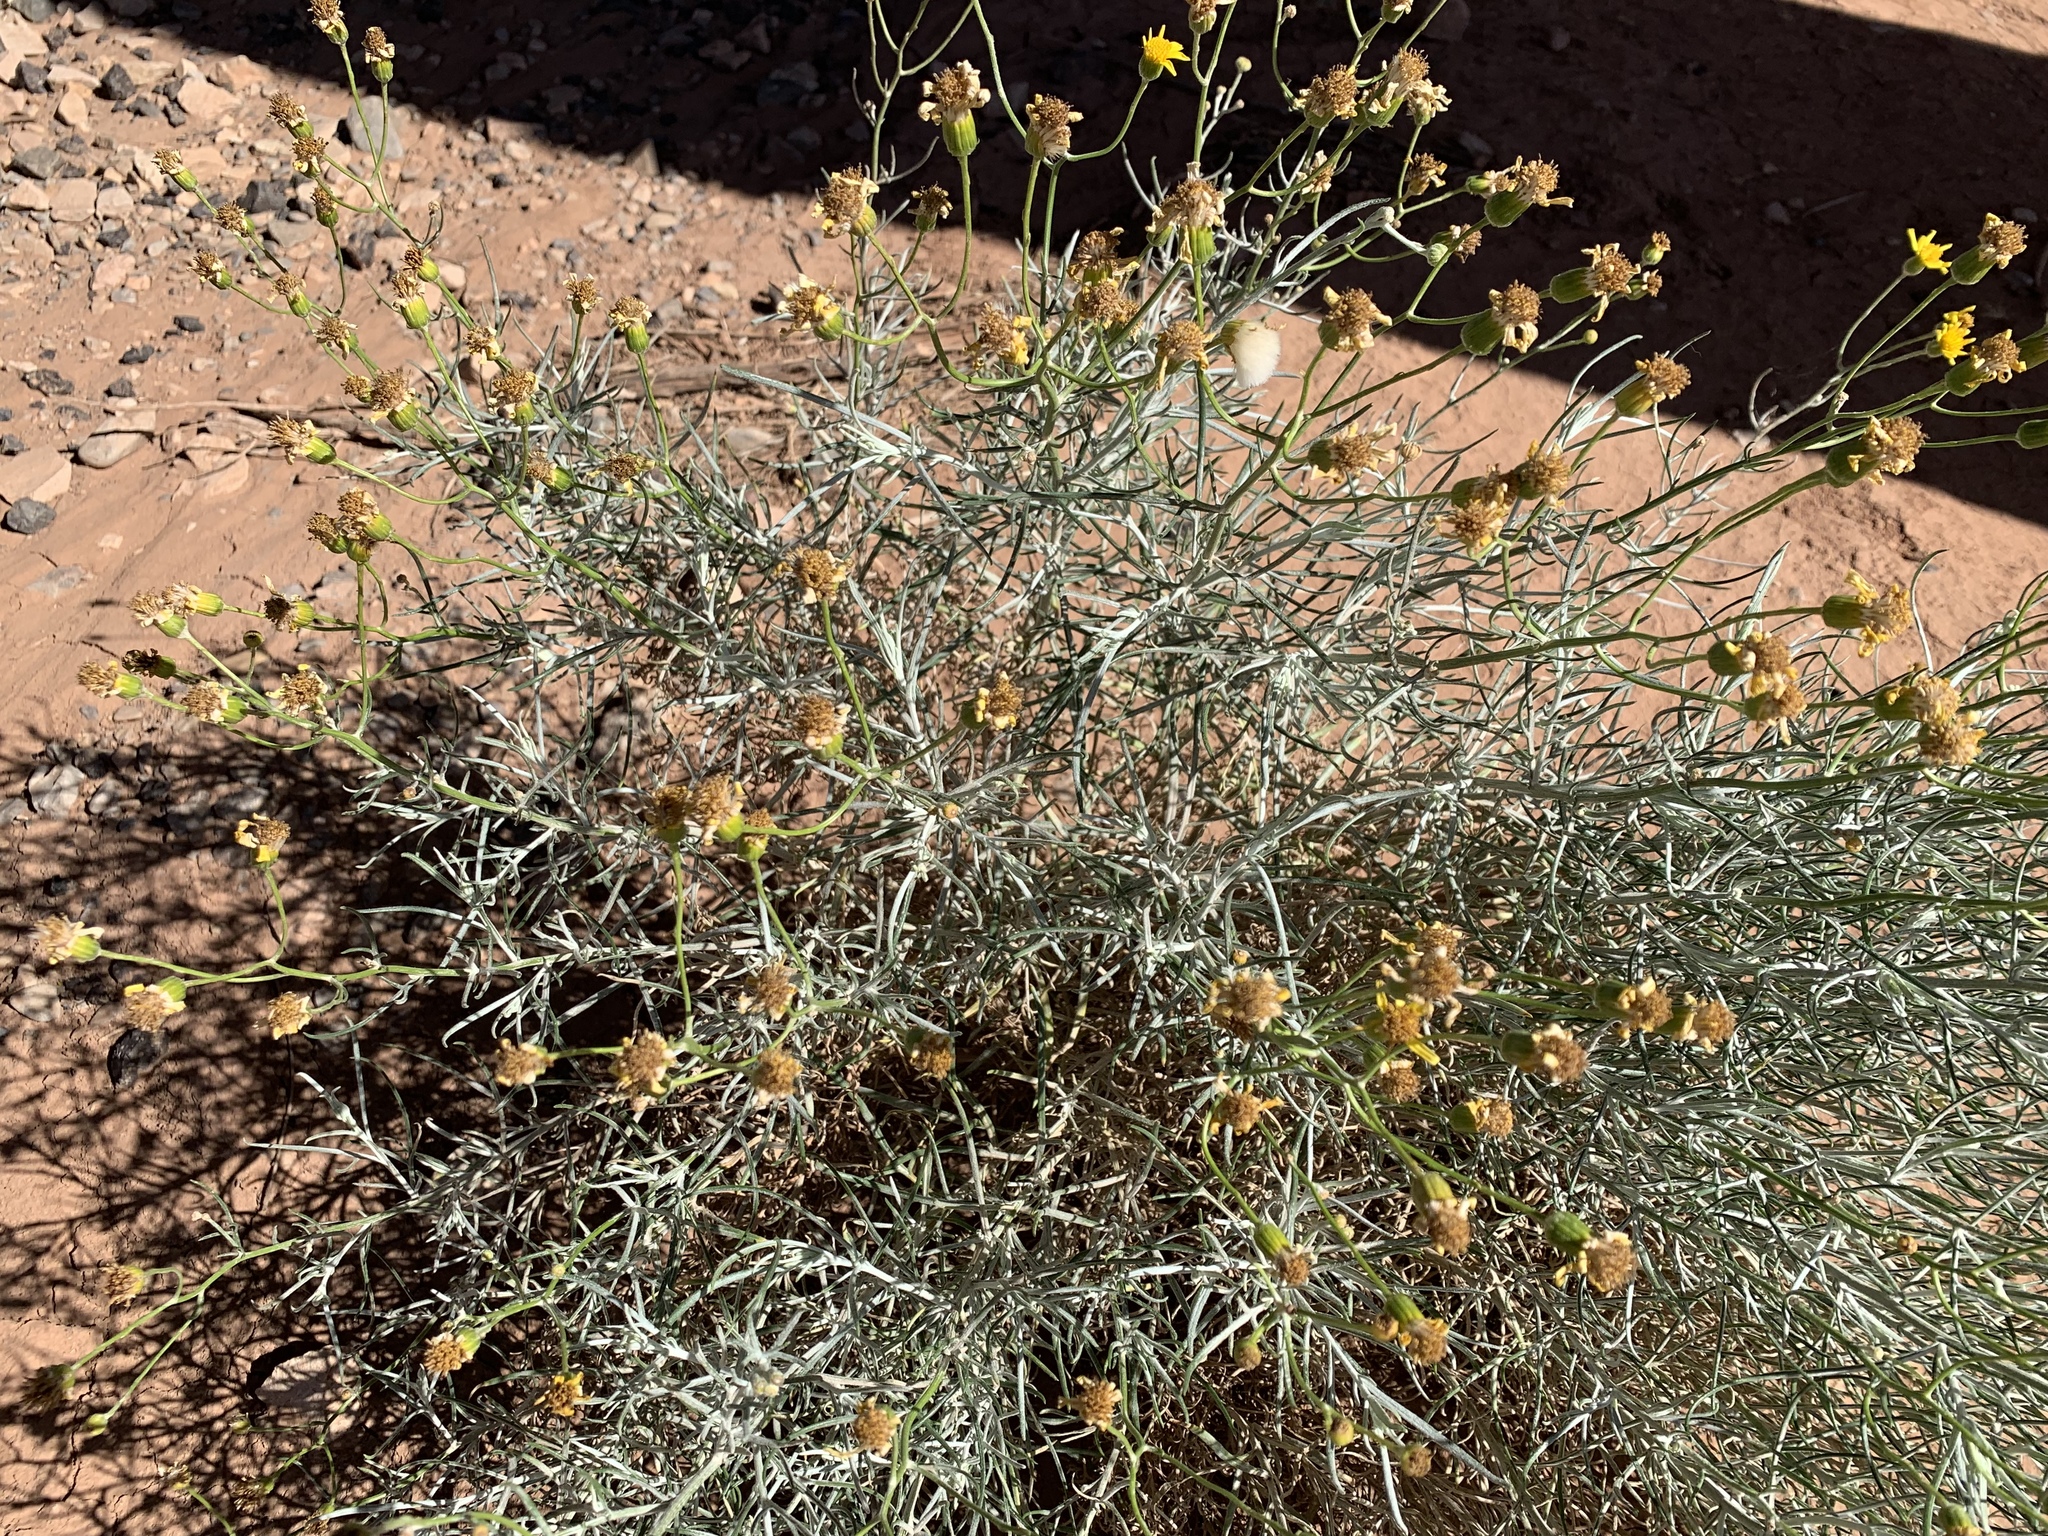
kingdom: Plantae
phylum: Tracheophyta
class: Magnoliopsida
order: Asterales
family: Asteraceae
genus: Senecio
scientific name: Senecio flaccidus
